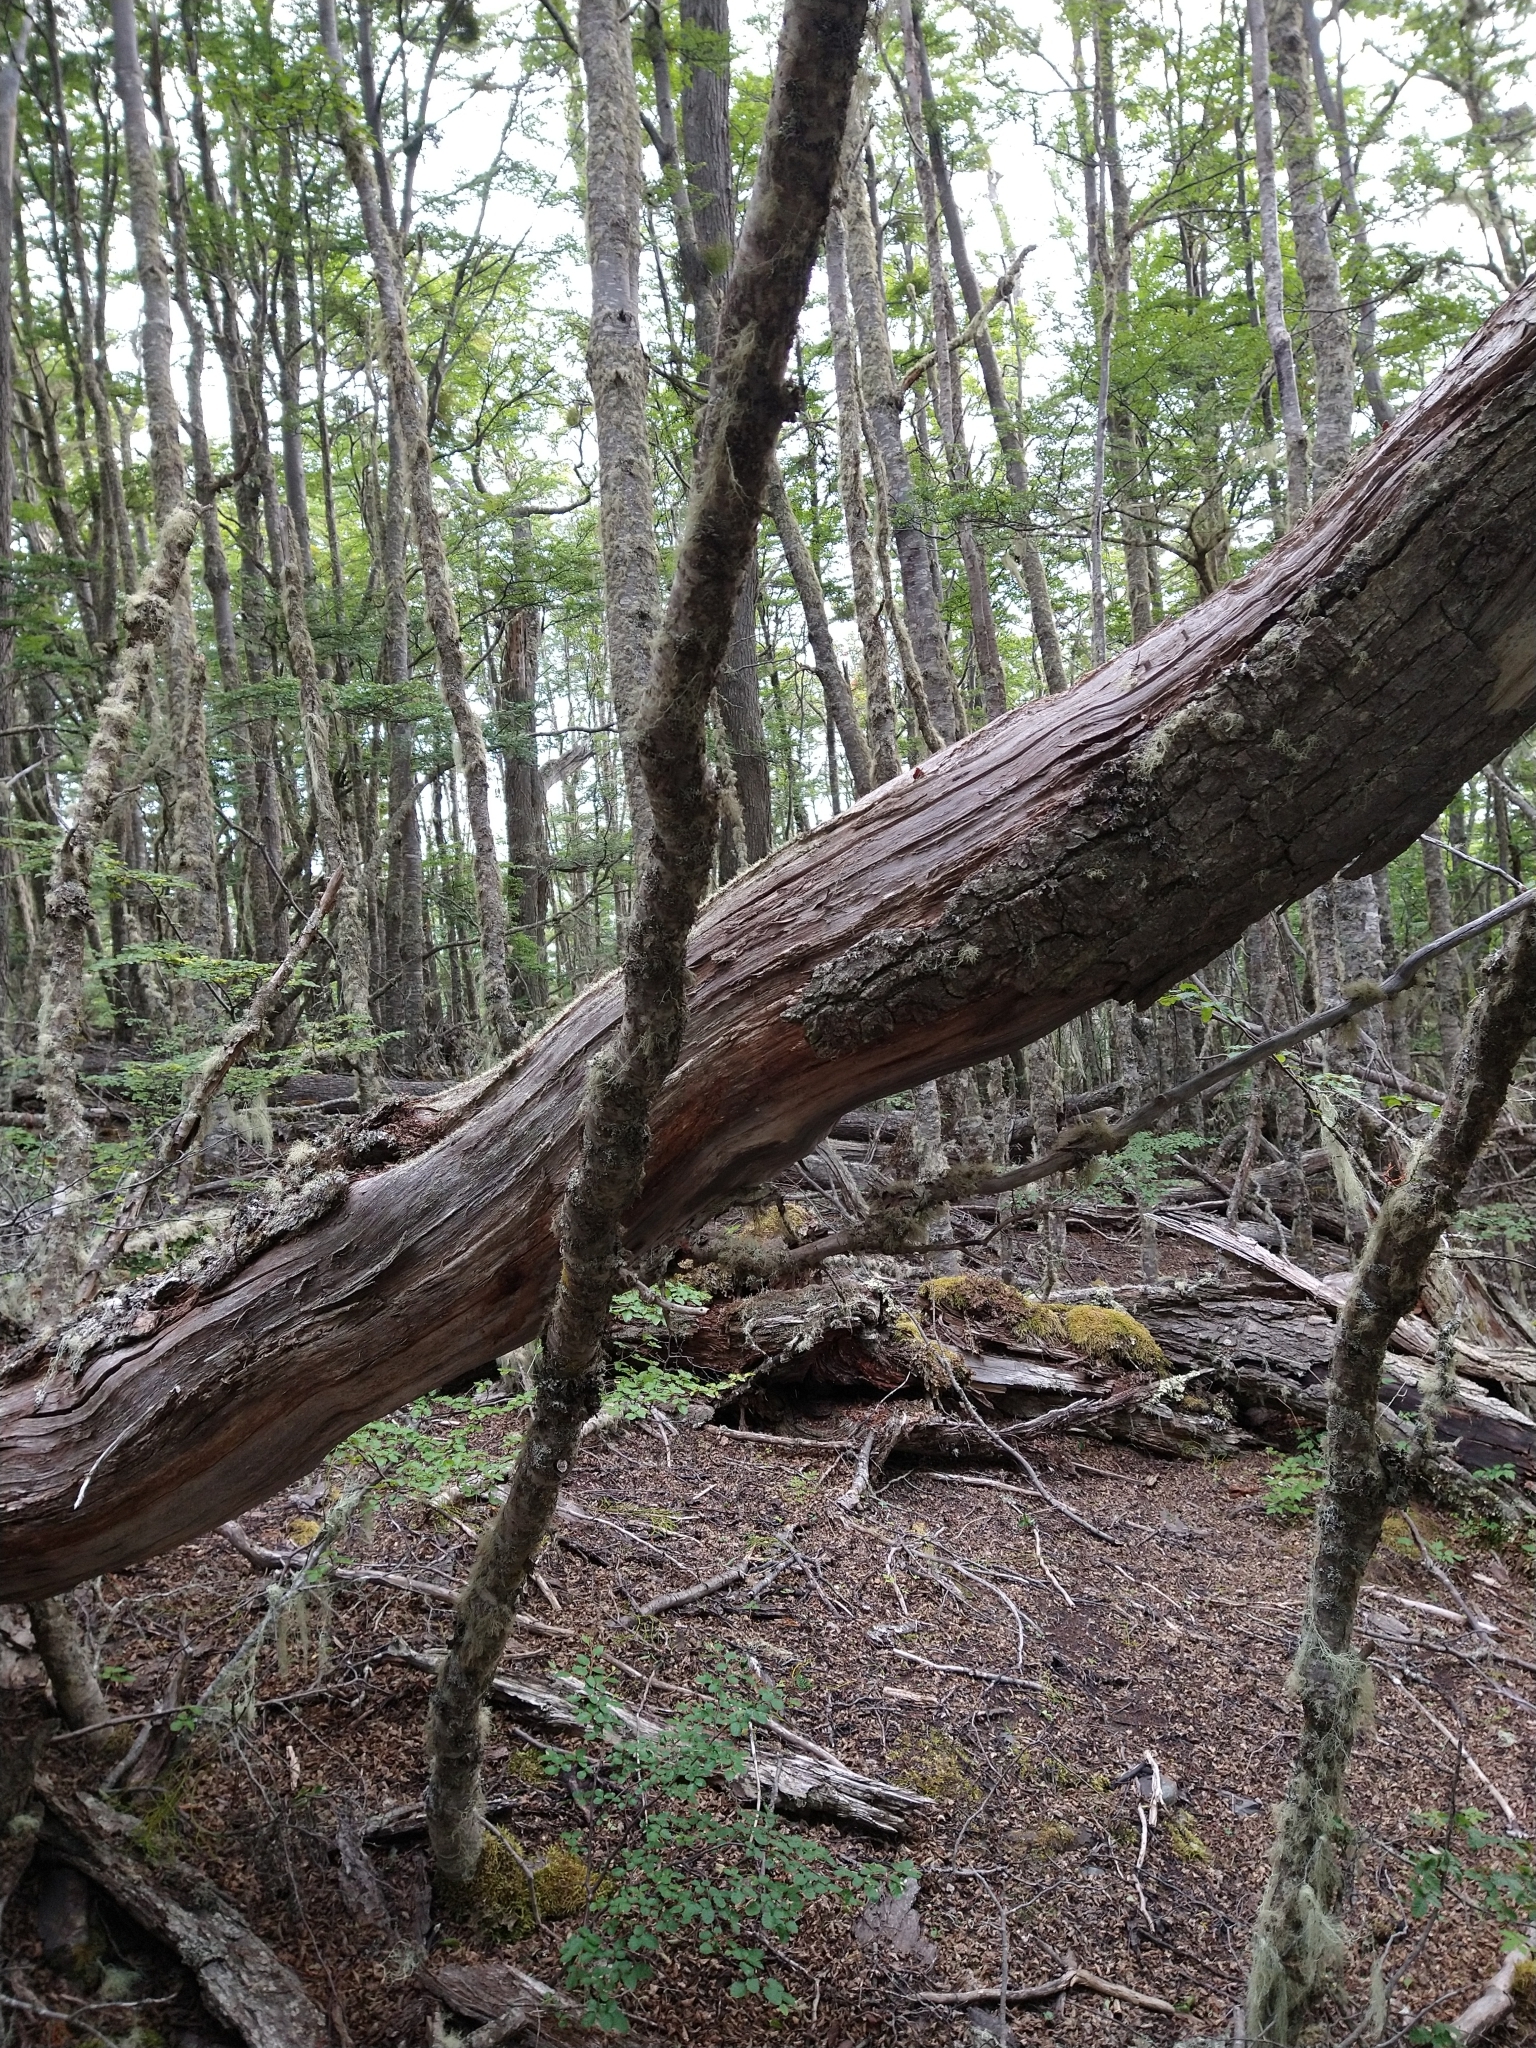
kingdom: Plantae
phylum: Tracheophyta
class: Magnoliopsida
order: Fagales
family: Nothofagaceae
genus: Nothofagus
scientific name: Nothofagus pumilio
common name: Lenga beech
